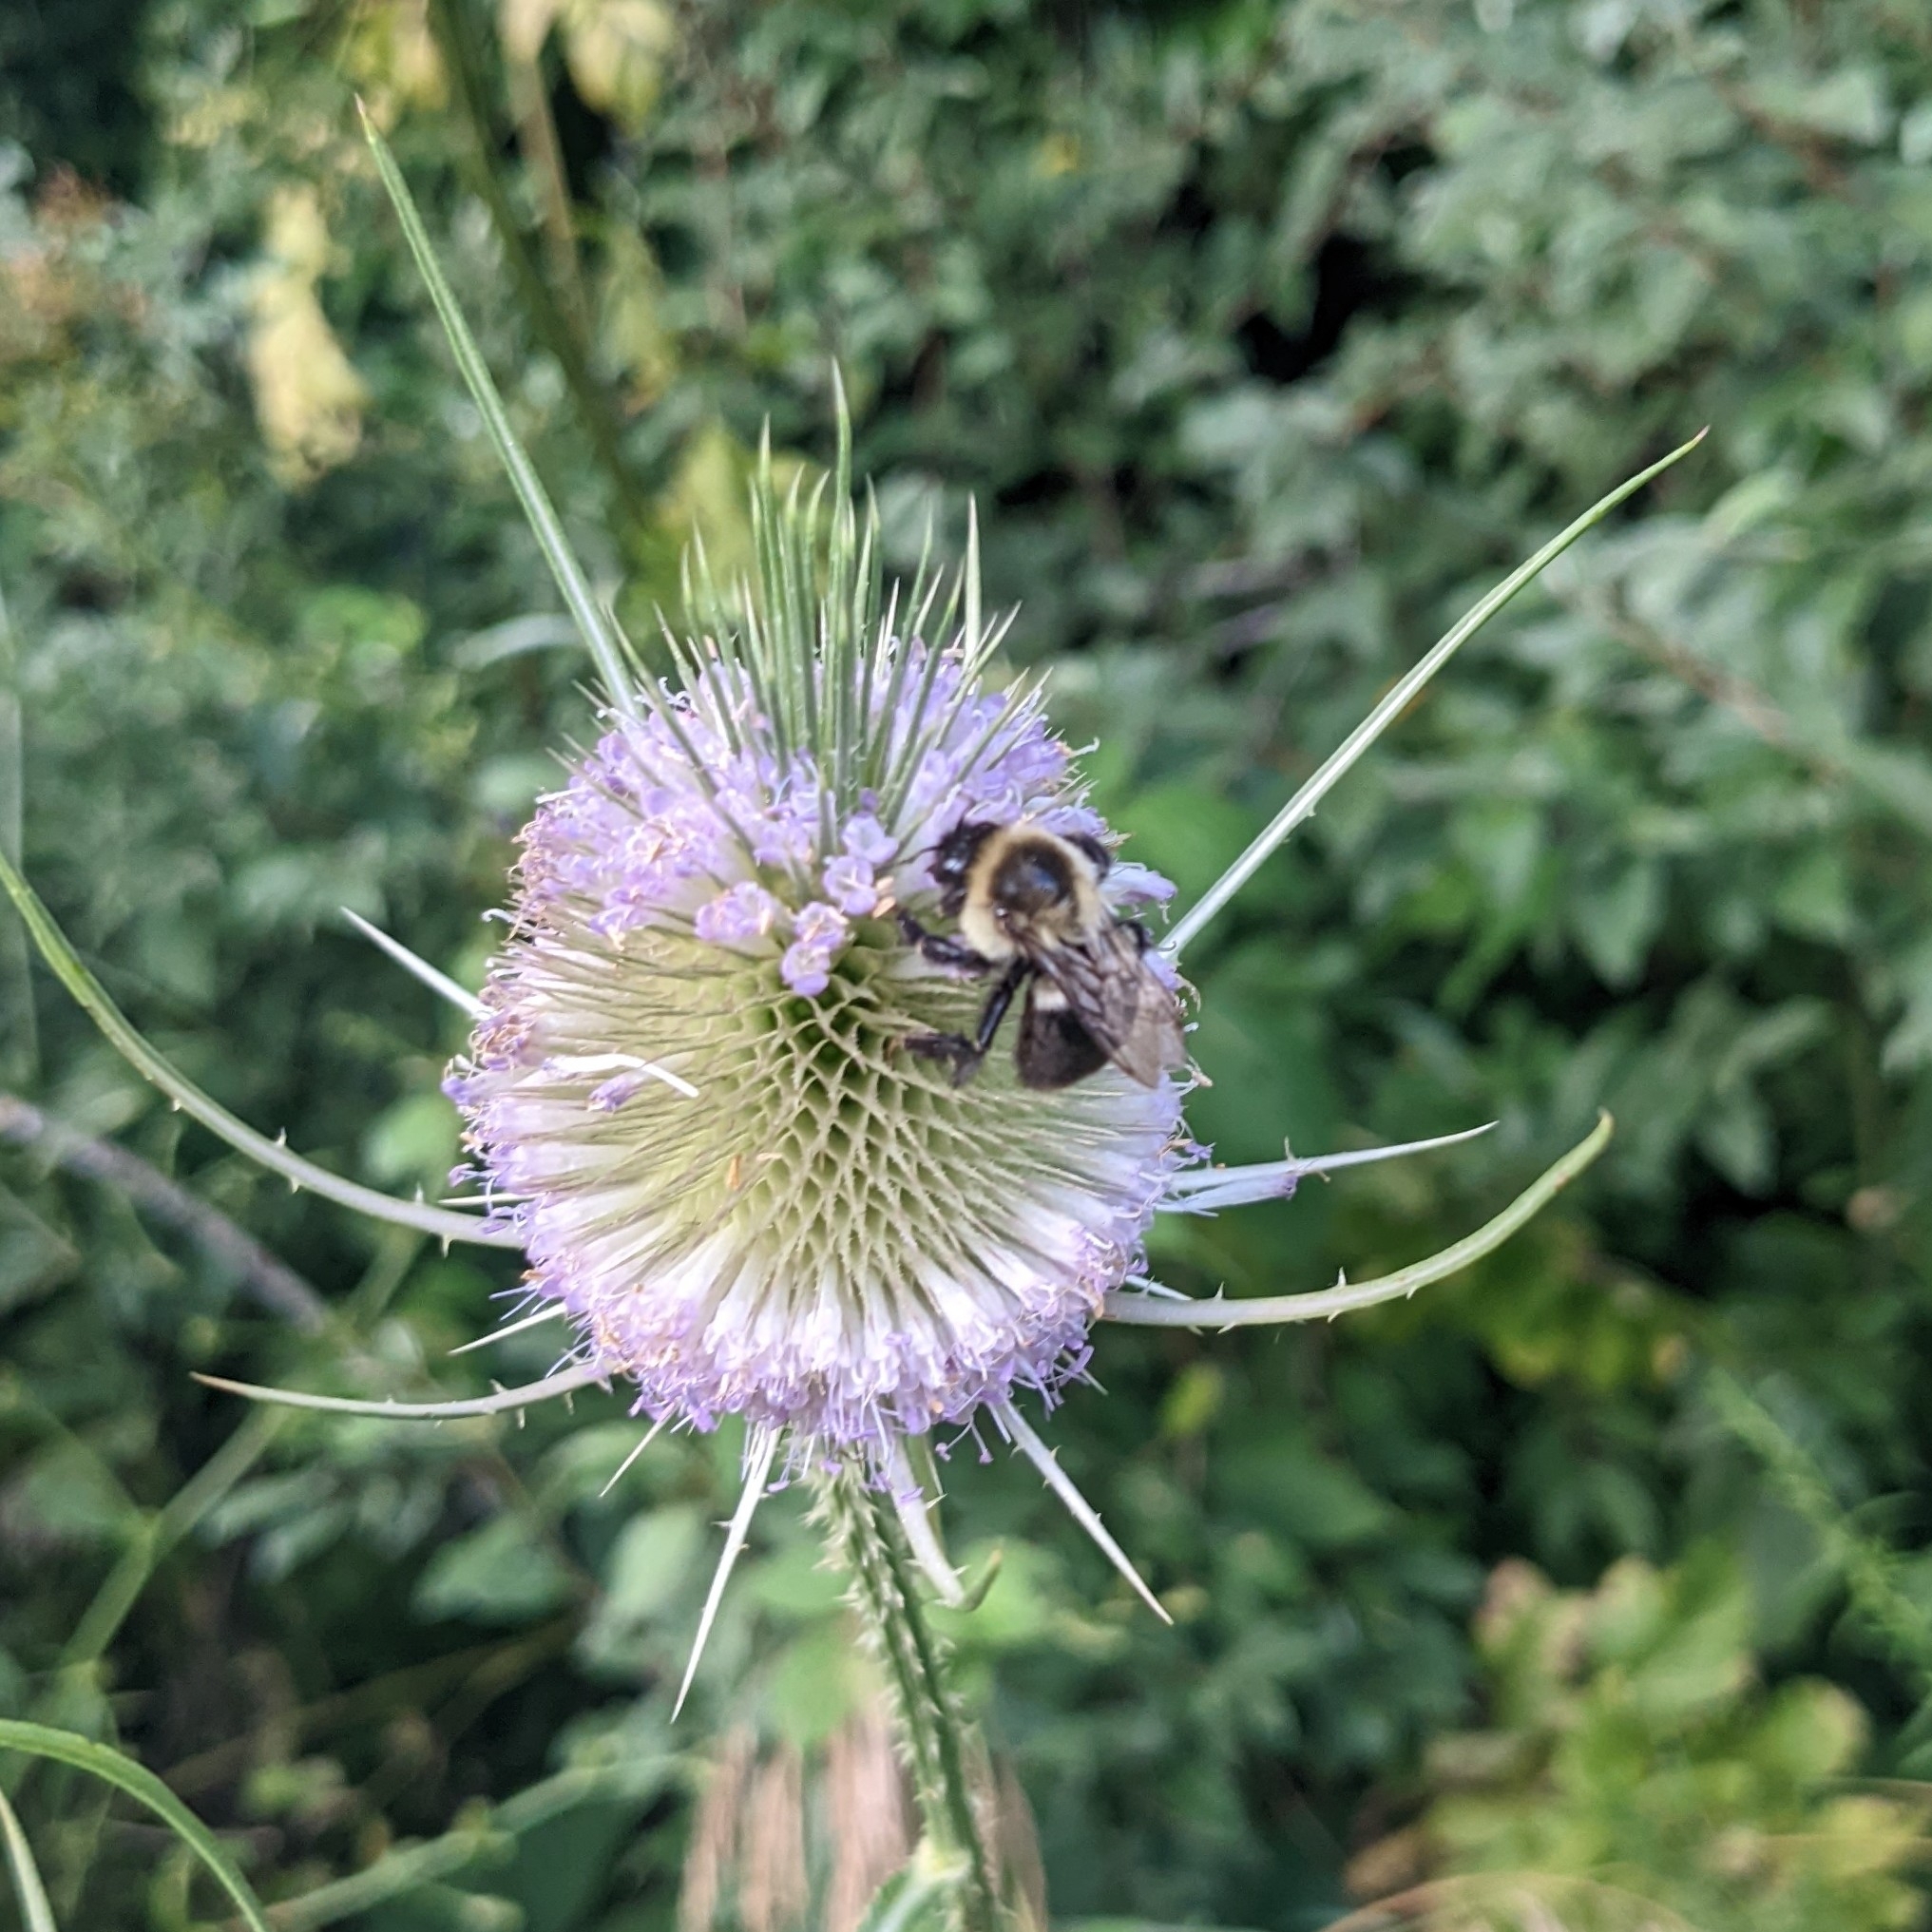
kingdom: Animalia
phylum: Arthropoda
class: Insecta
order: Hymenoptera
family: Apidae
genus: Bombus
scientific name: Bombus impatiens
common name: Common eastern bumble bee
